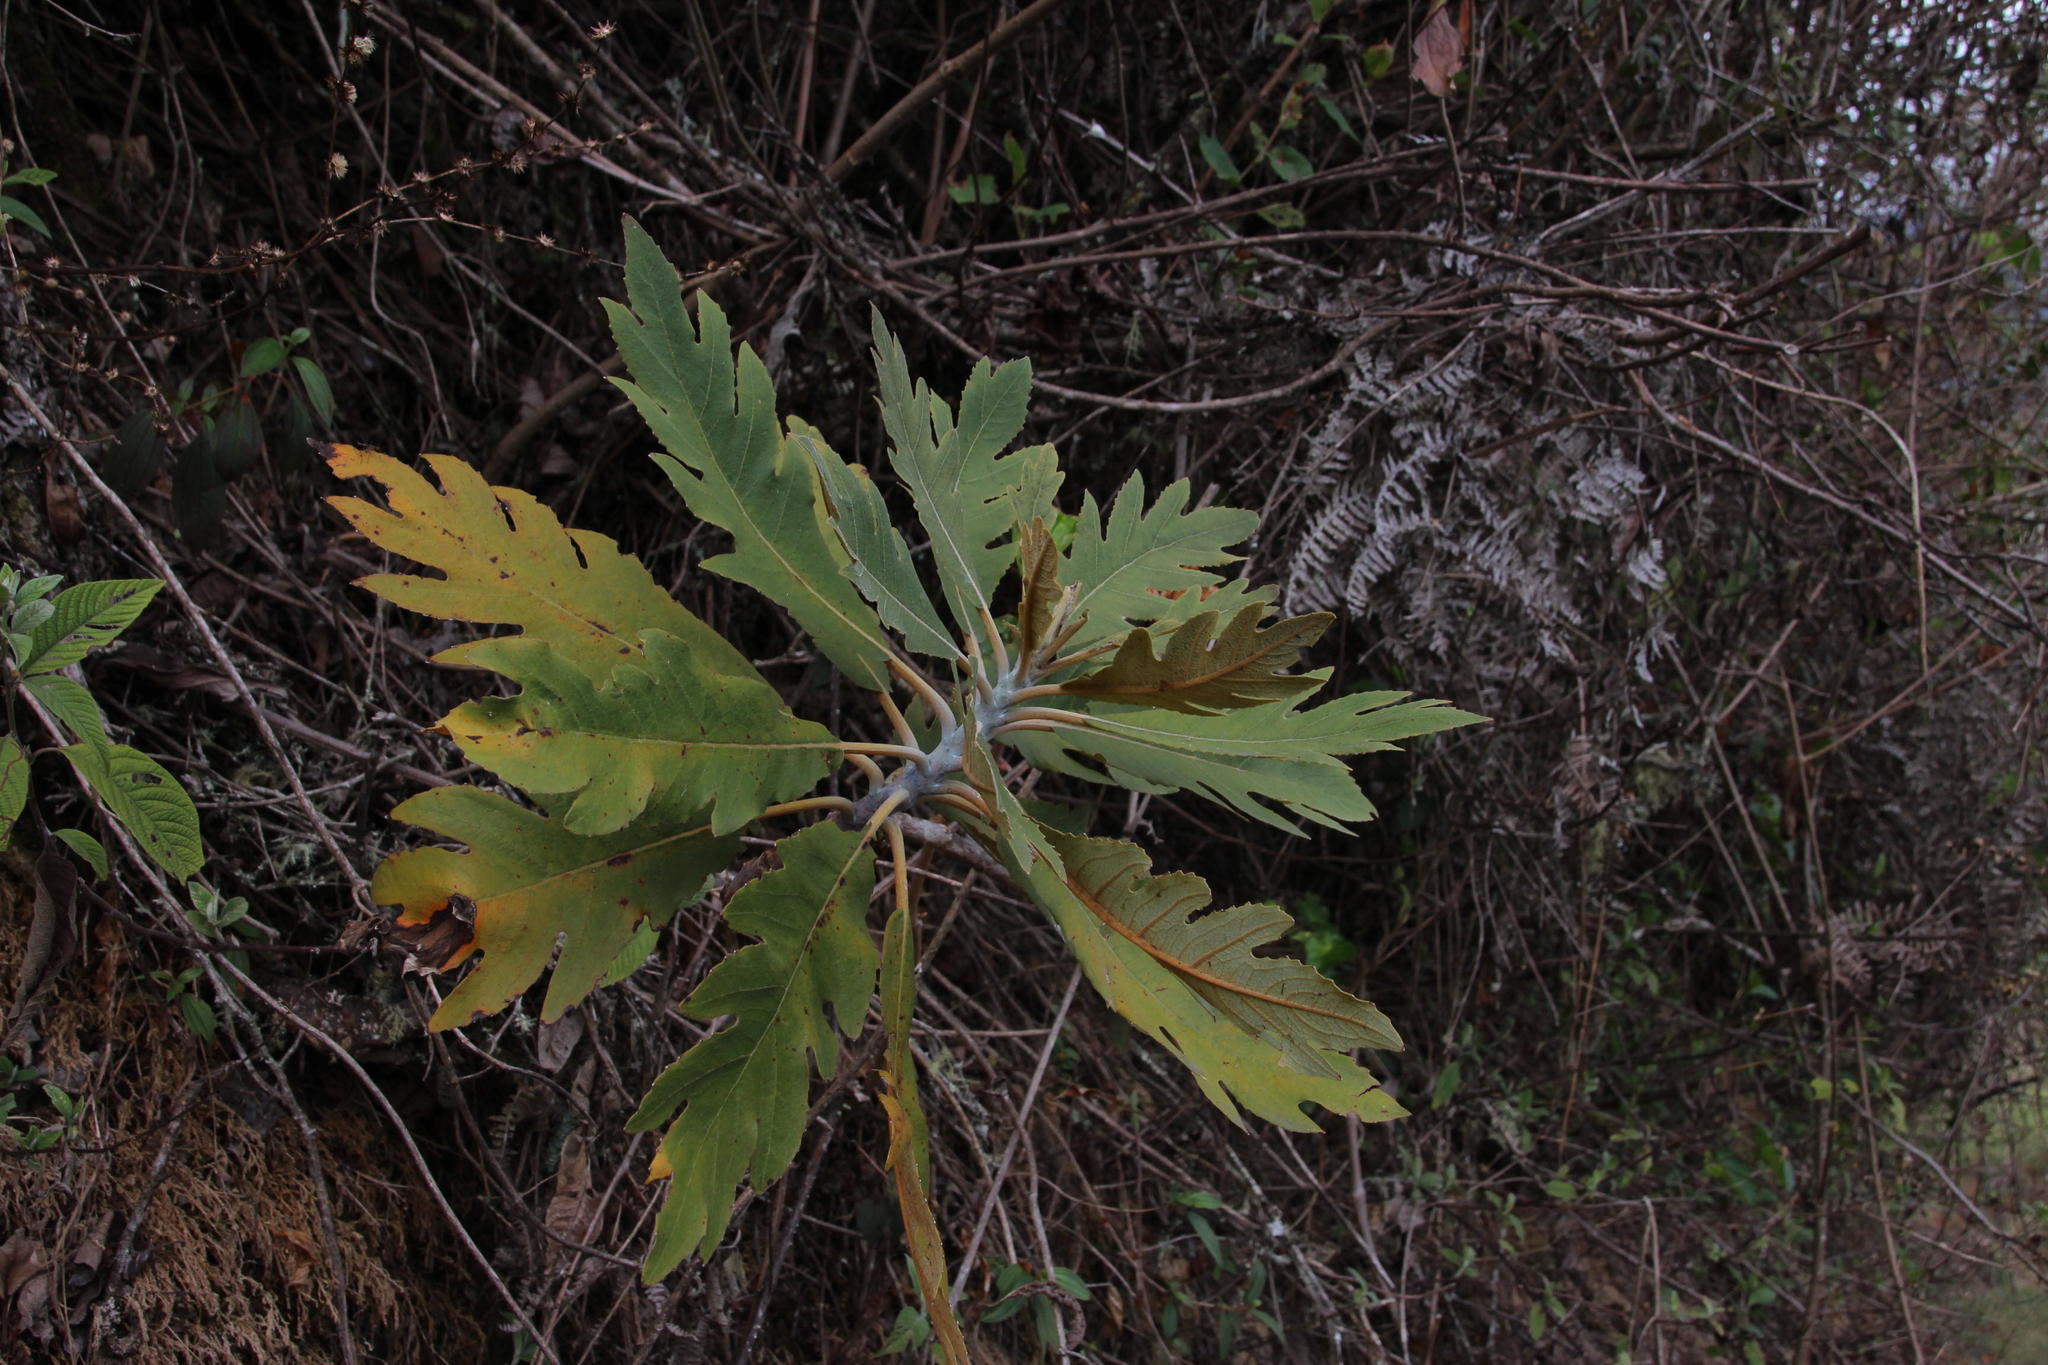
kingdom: Plantae
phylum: Tracheophyta
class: Magnoliopsida
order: Ranunculales
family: Papaveraceae
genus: Bocconia
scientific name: Bocconia frutescens
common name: Tree poppy
